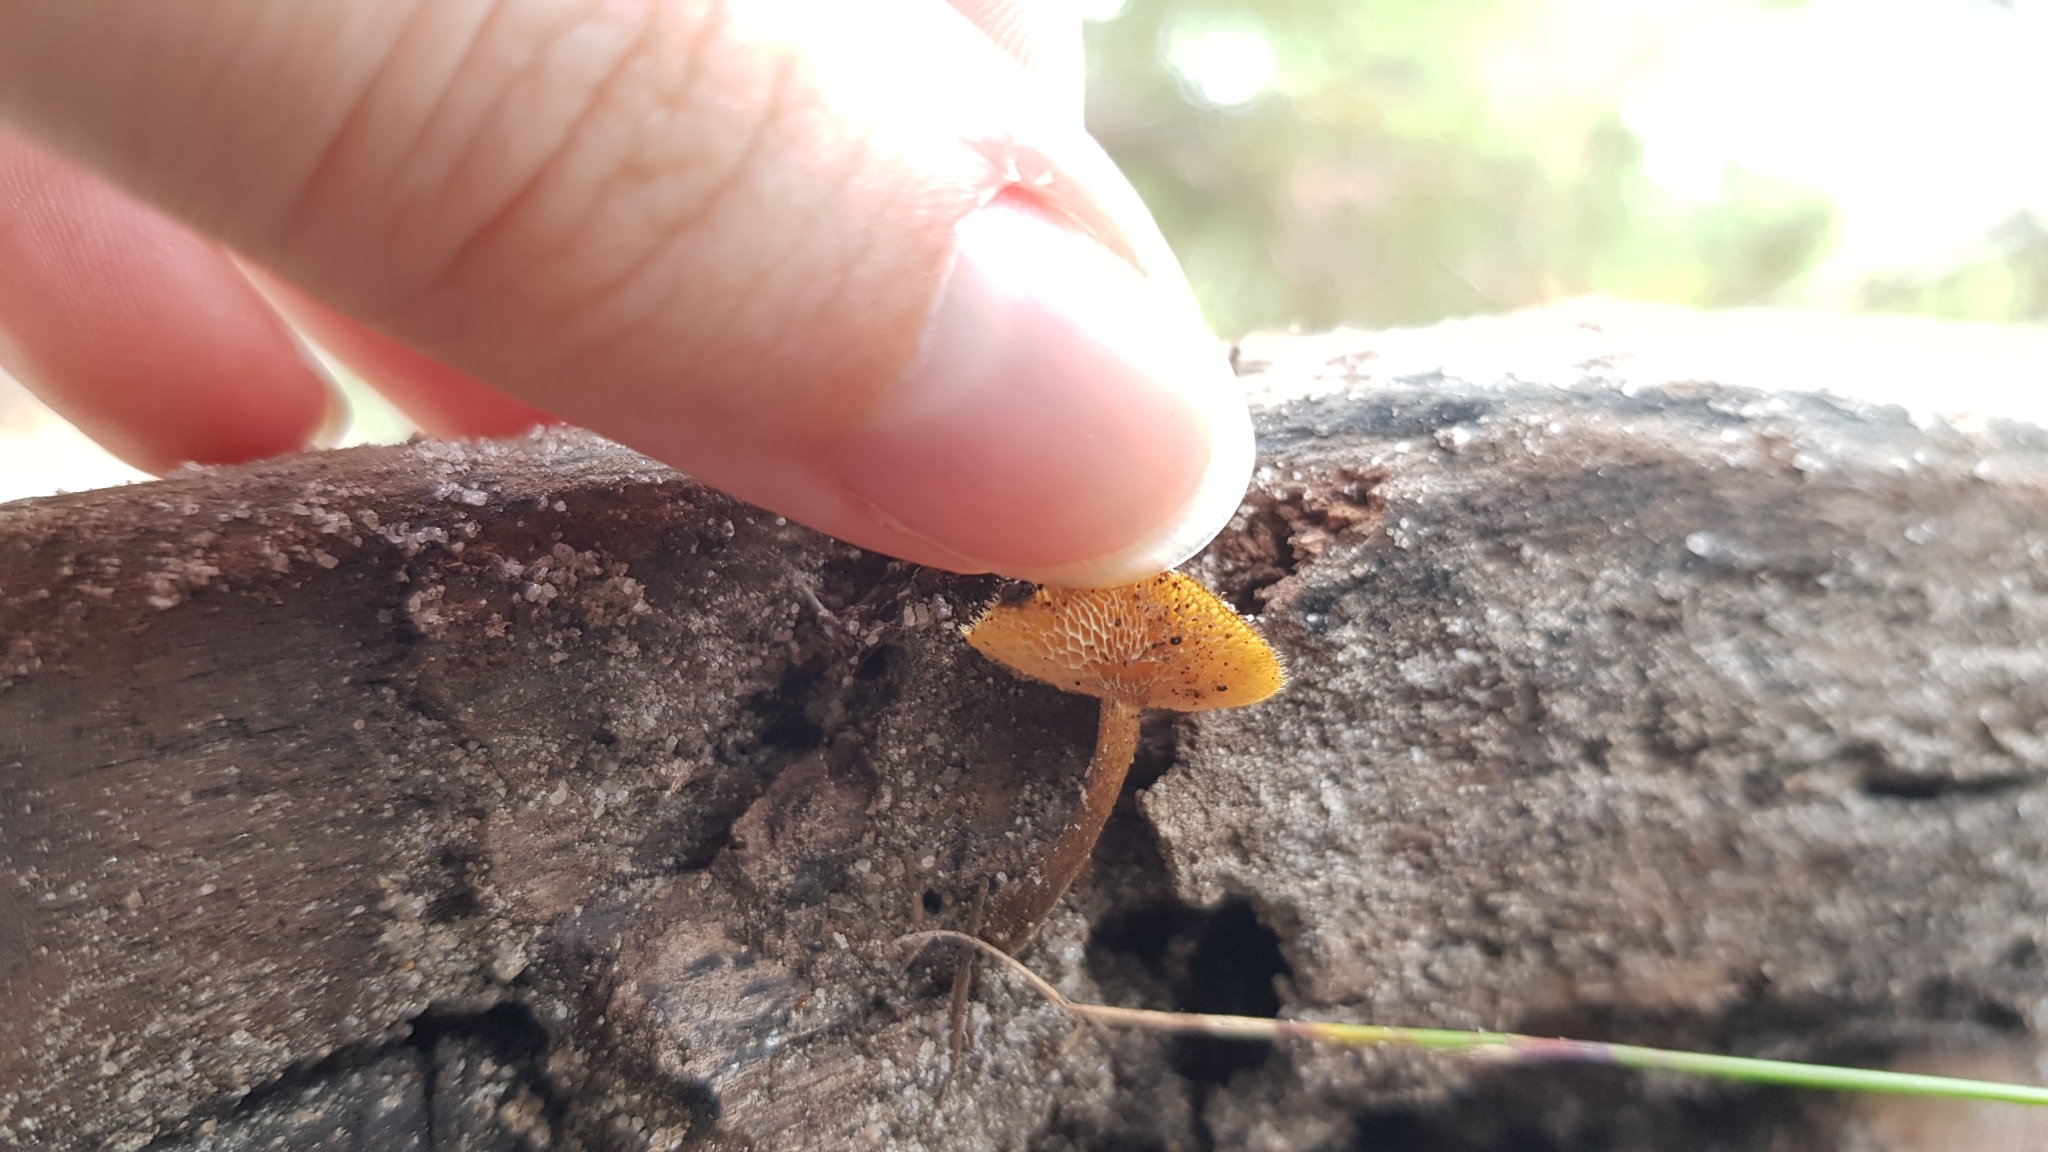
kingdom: Fungi
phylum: Basidiomycota
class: Agaricomycetes
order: Polyporales
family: Polyporaceae
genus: Lentinus
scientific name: Lentinus arcularius
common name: Spring polypore
